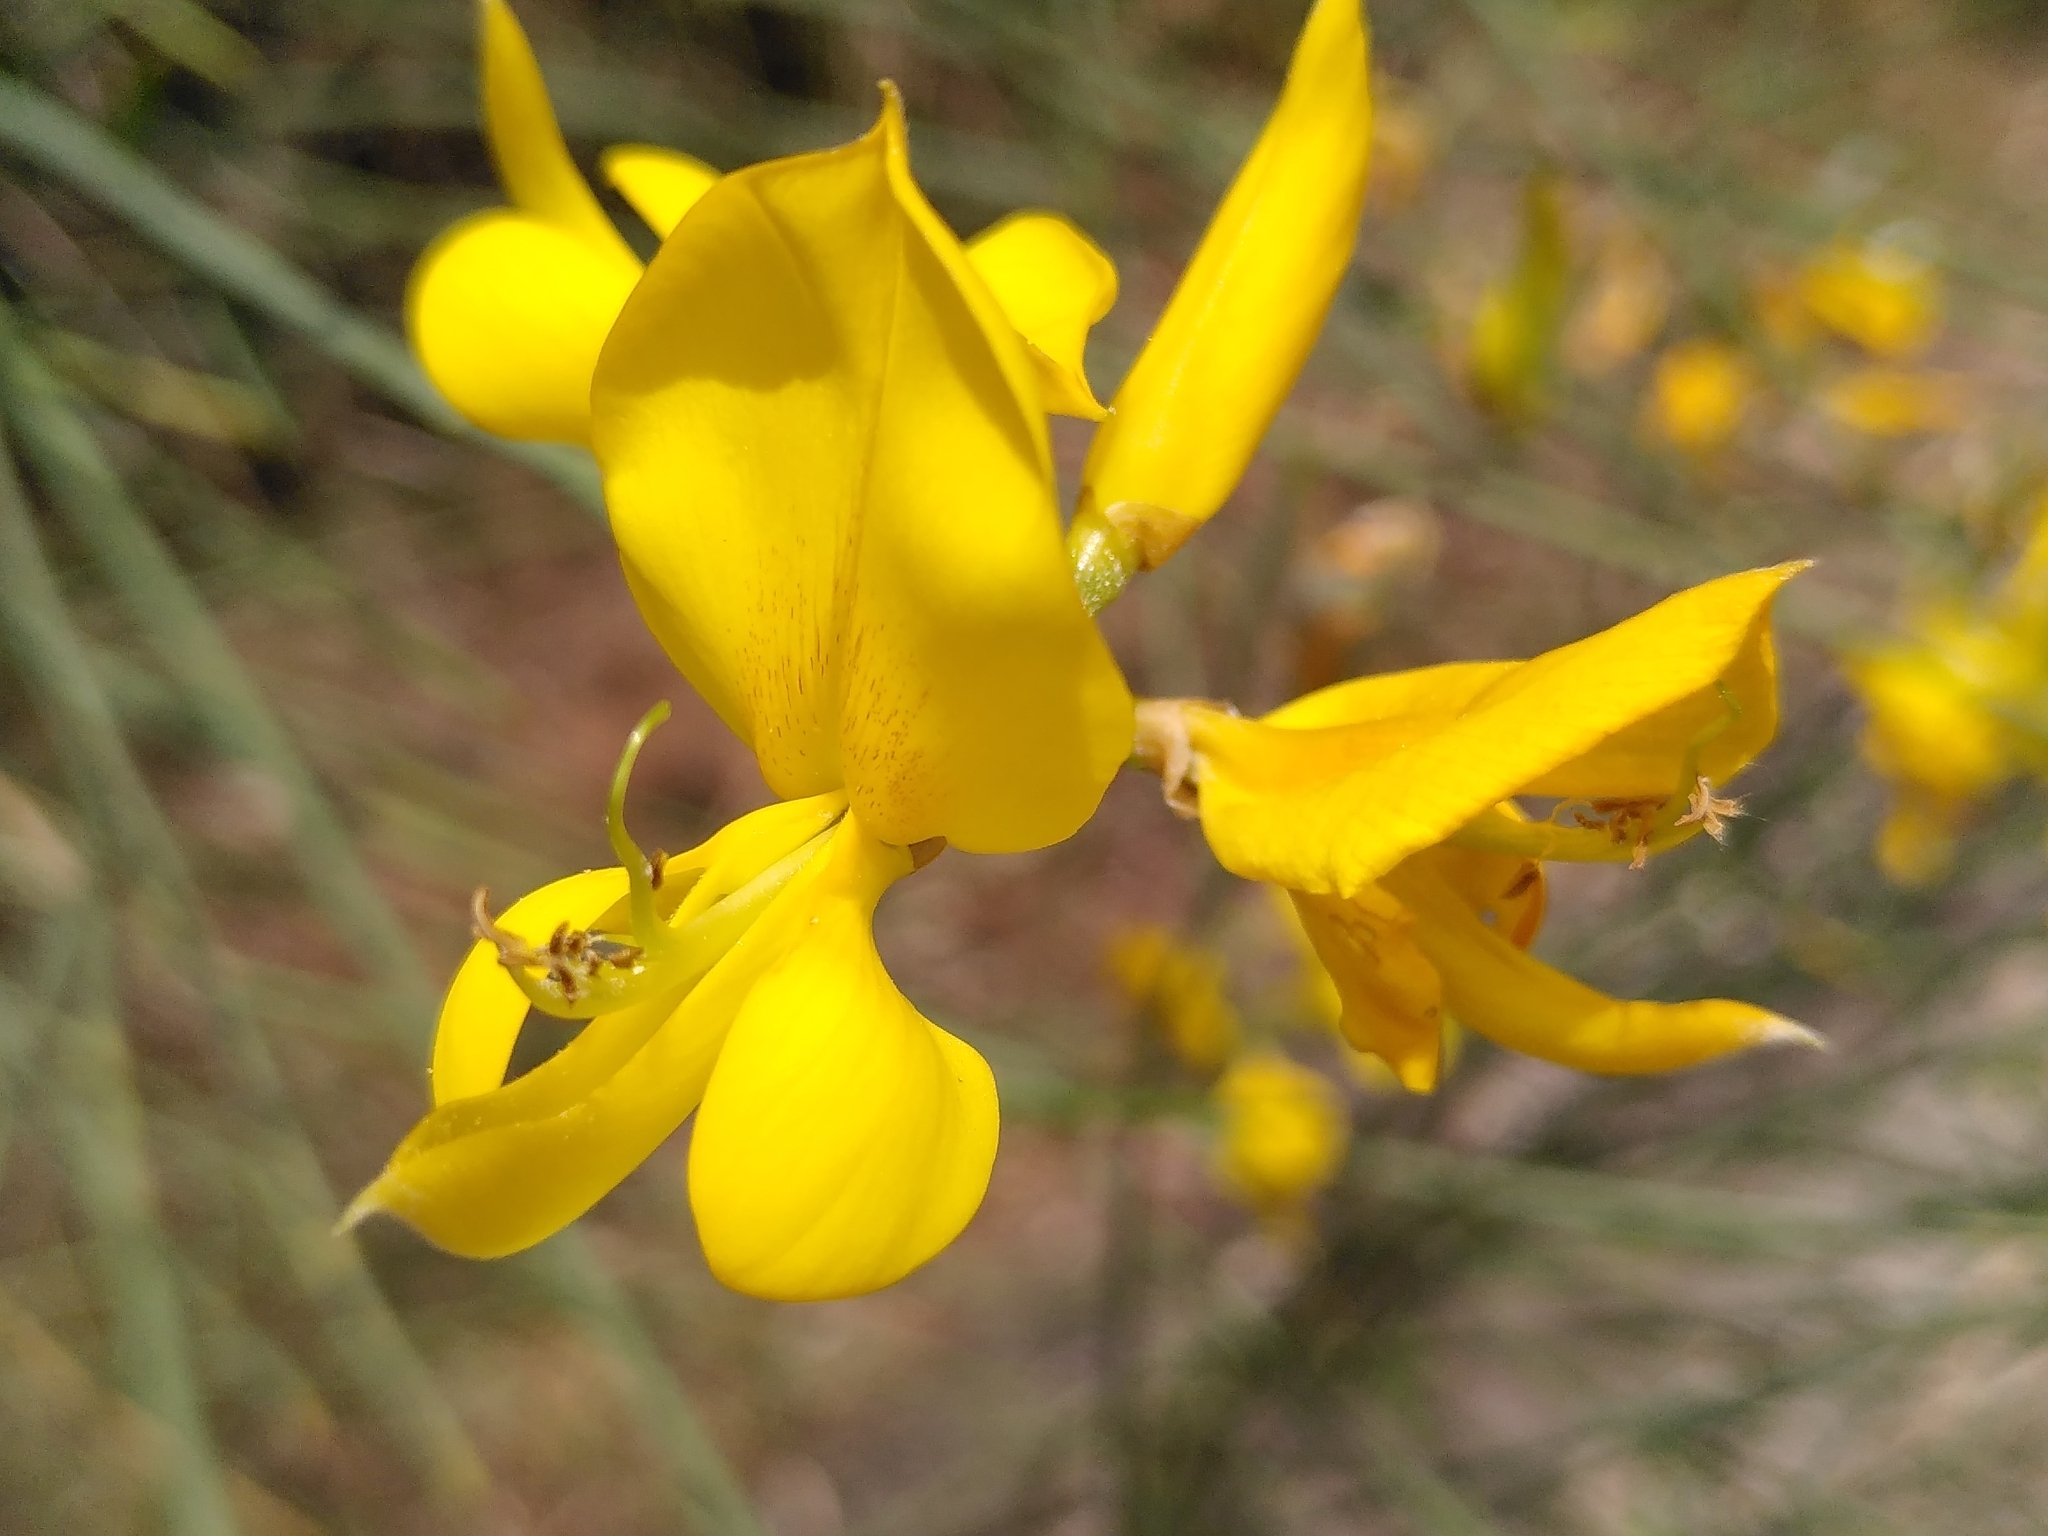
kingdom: Plantae
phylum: Tracheophyta
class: Magnoliopsida
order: Fabales
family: Fabaceae
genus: Spartium
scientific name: Spartium junceum
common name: Spanish broom
